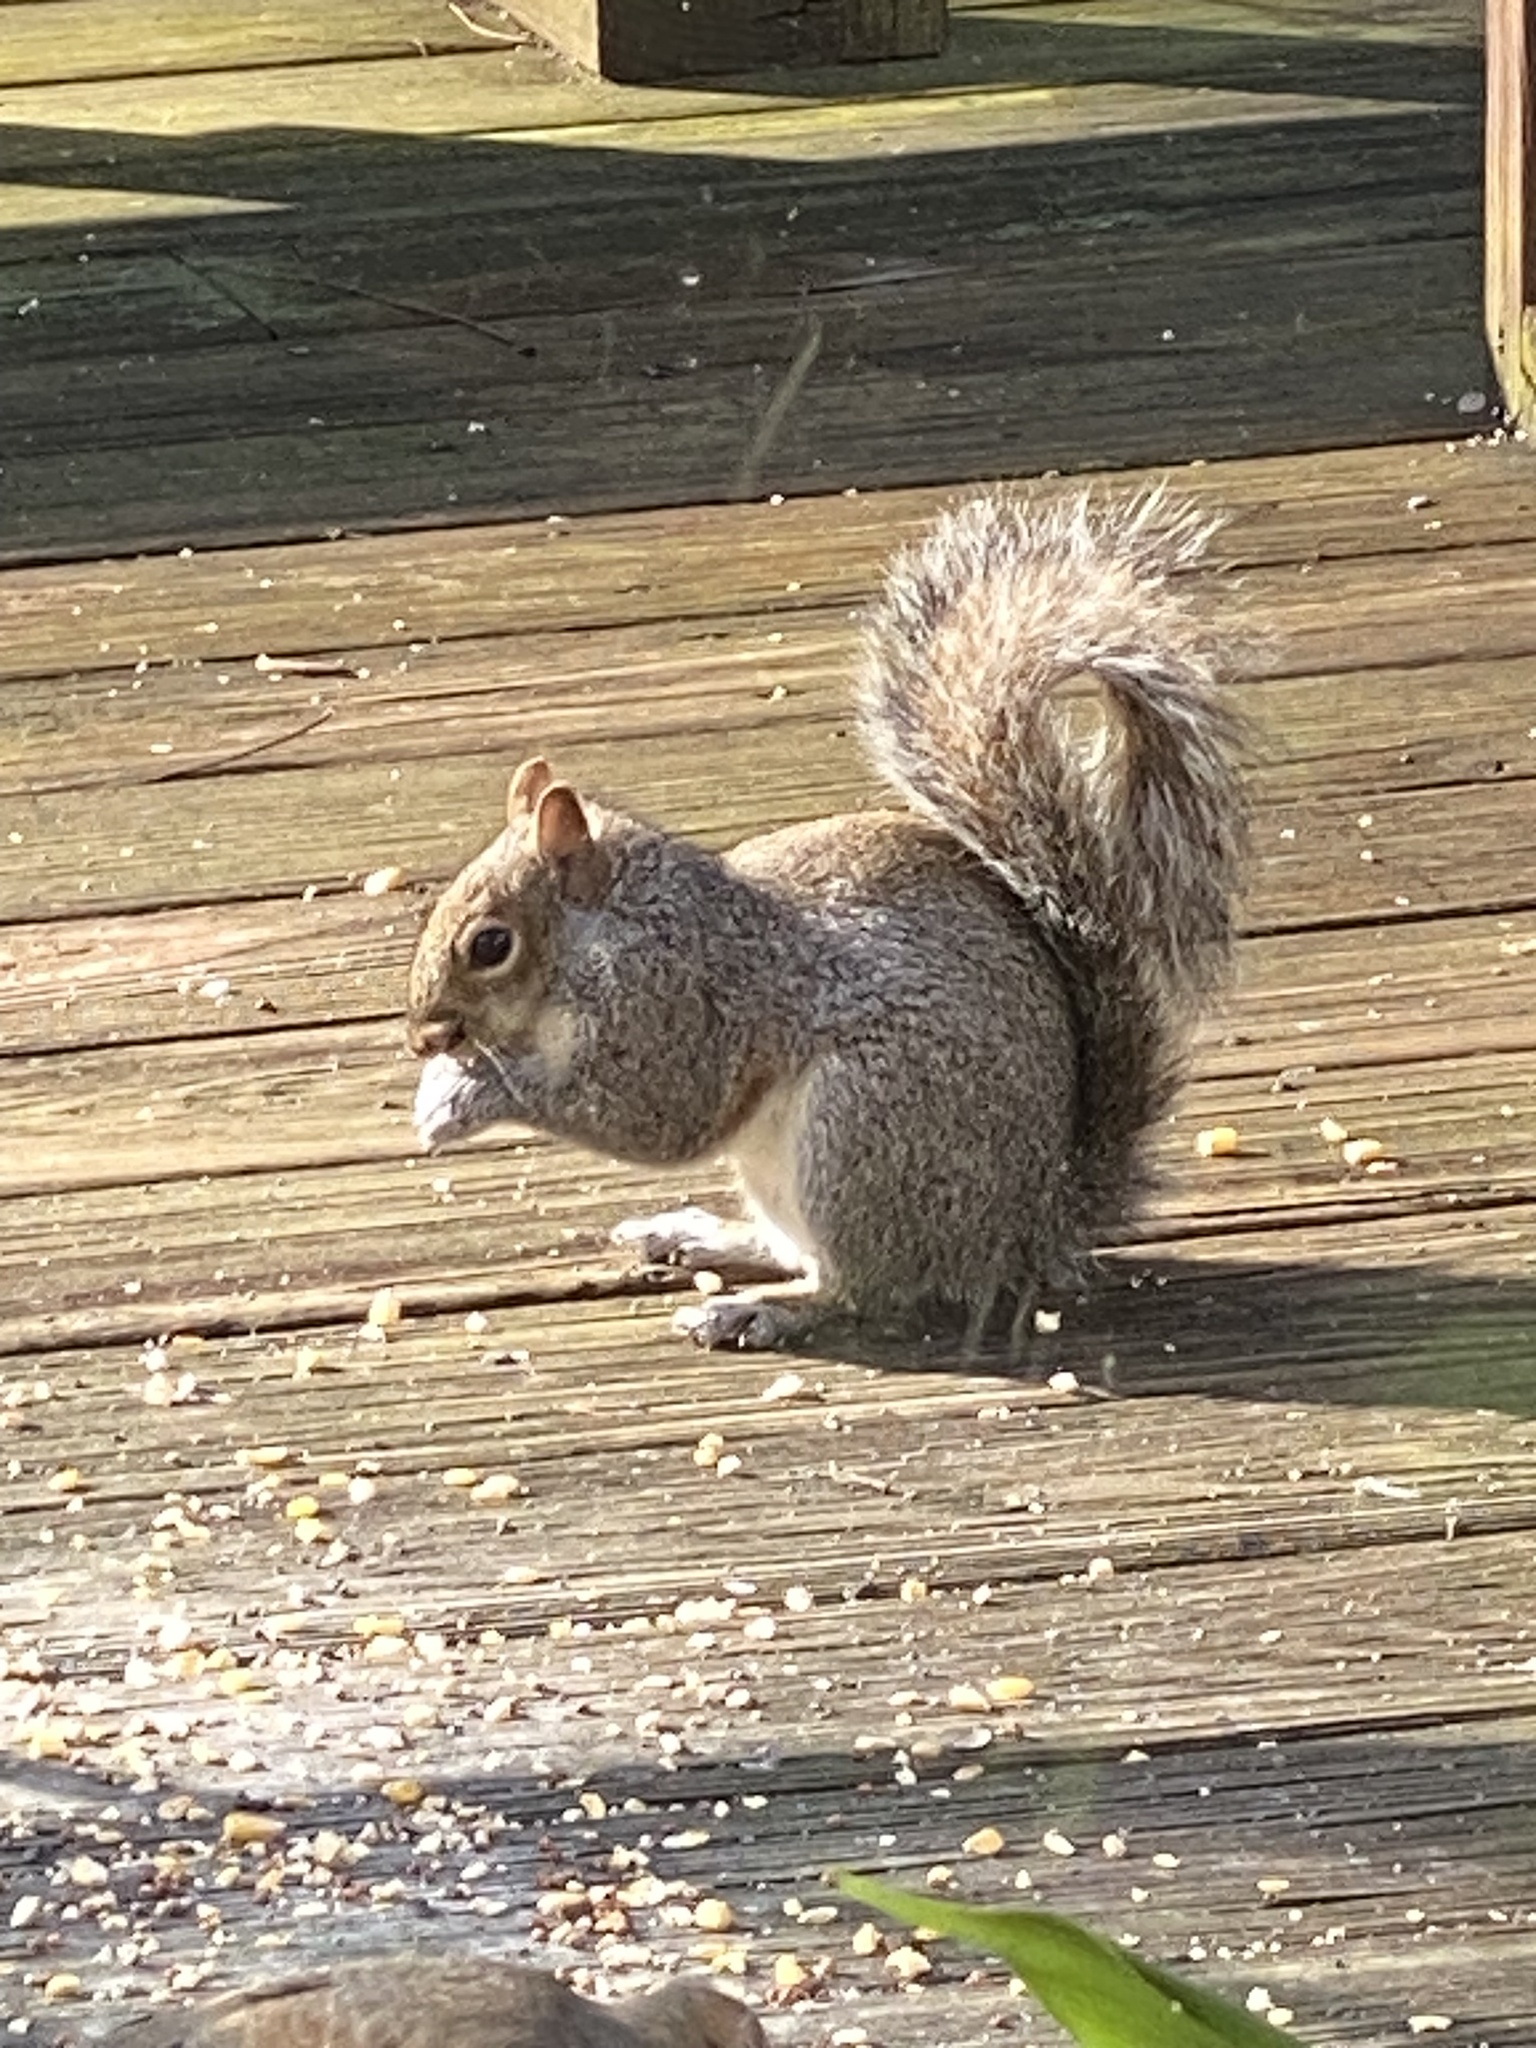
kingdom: Animalia
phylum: Chordata
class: Mammalia
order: Rodentia
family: Sciuridae
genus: Sciurus
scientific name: Sciurus carolinensis
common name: Eastern gray squirrel
